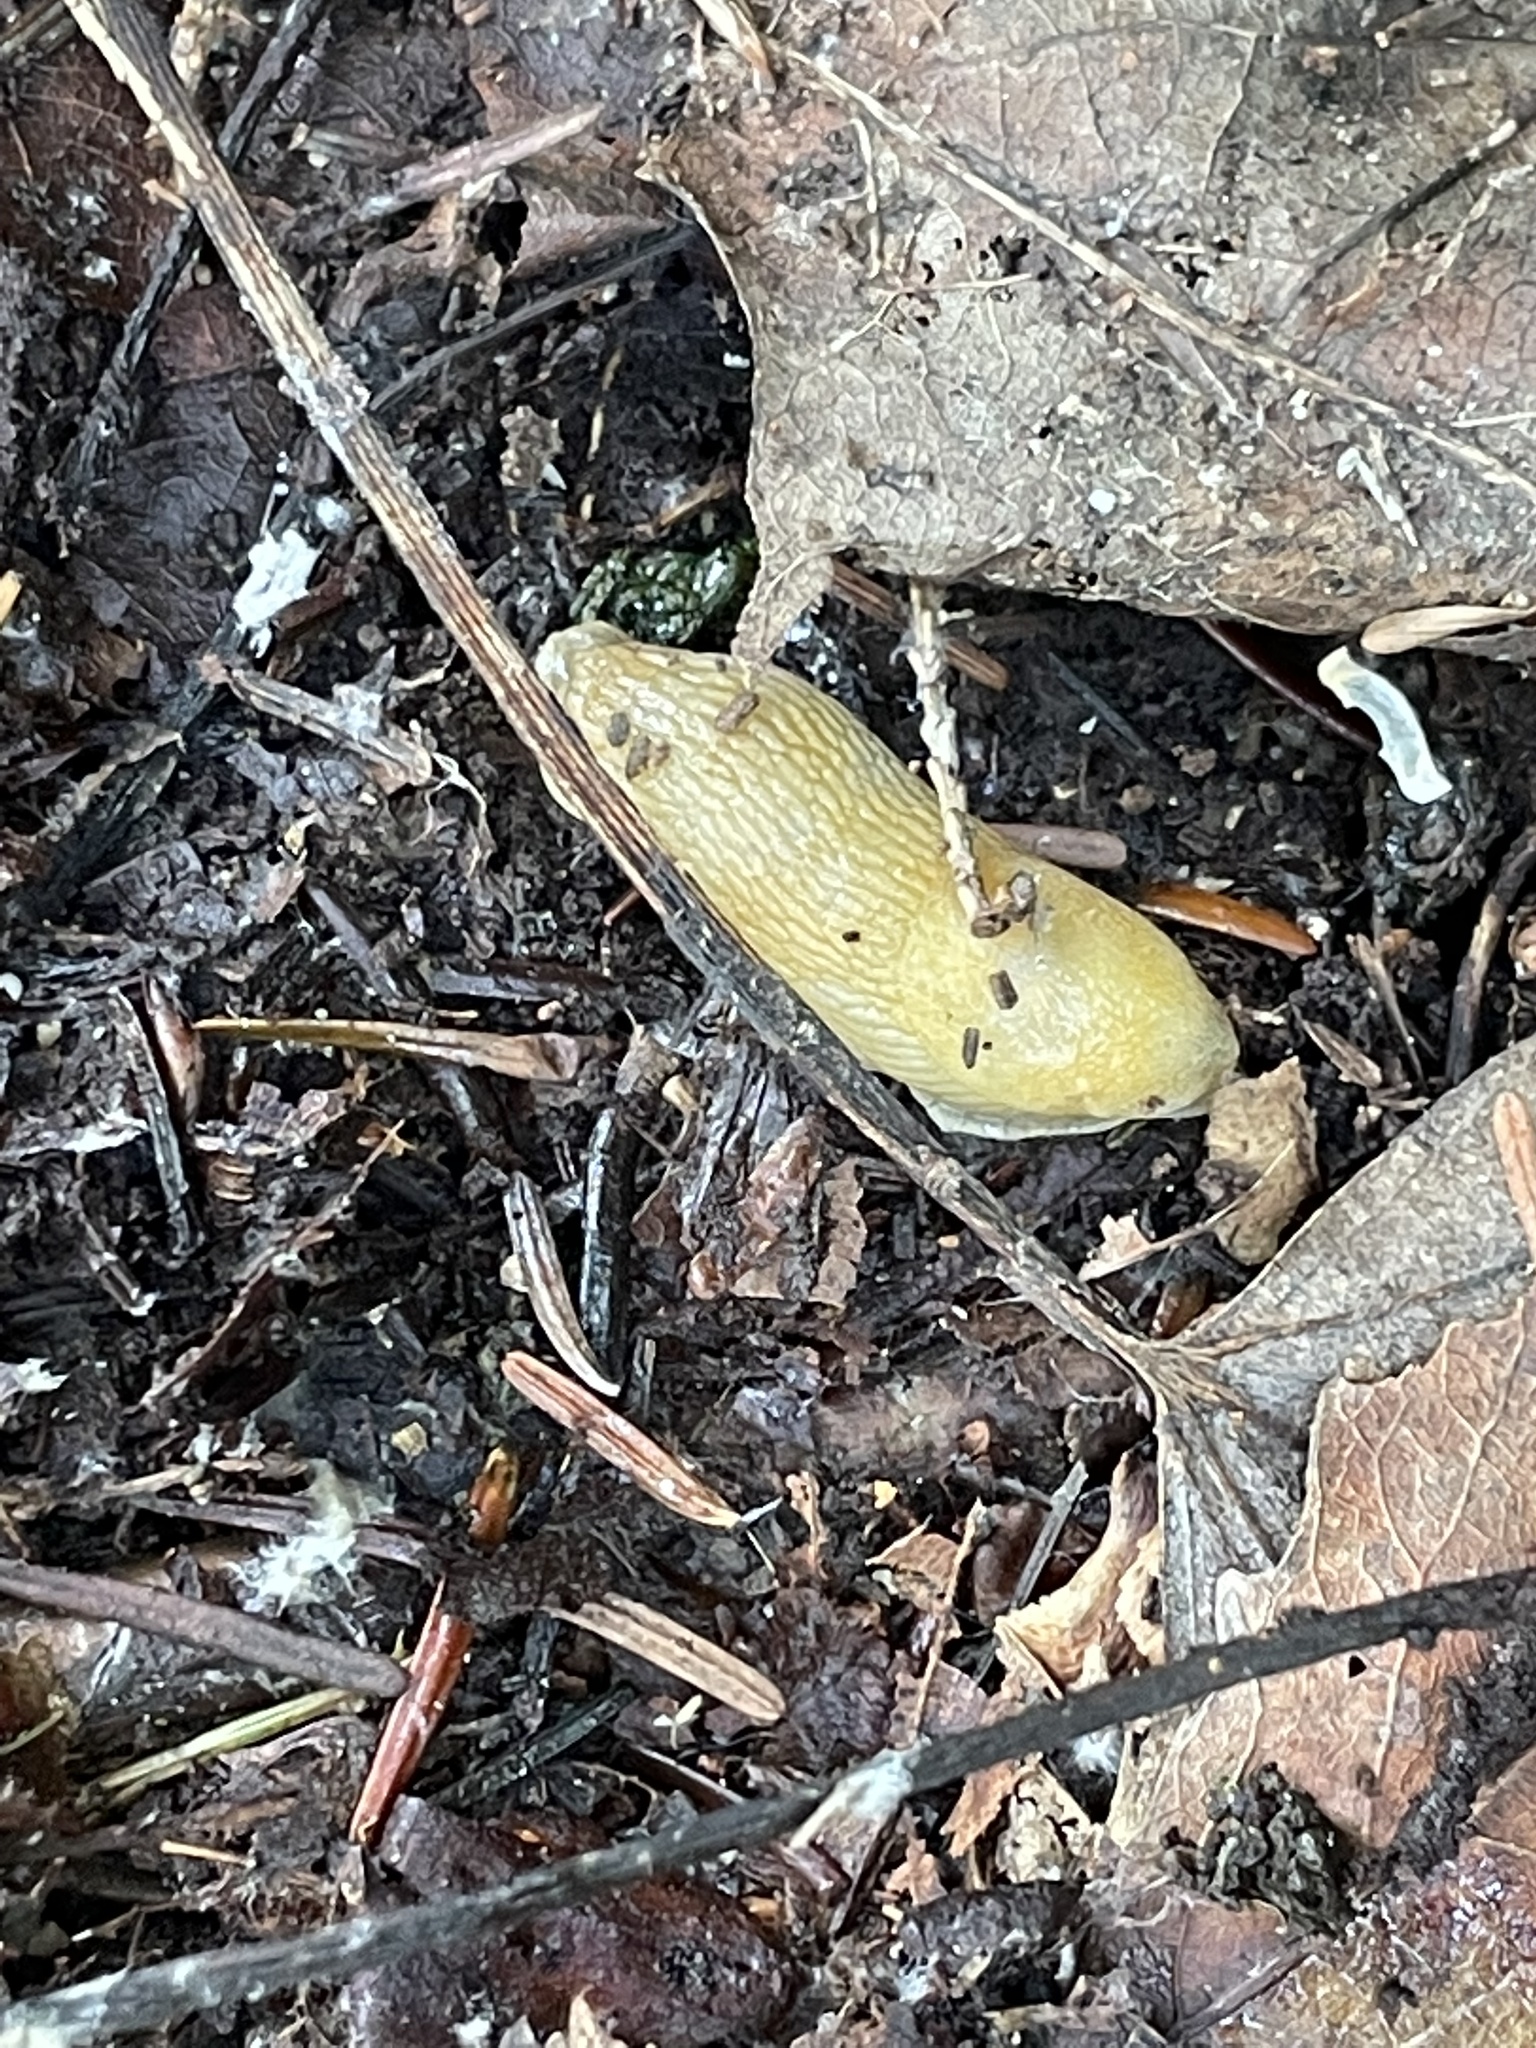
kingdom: Animalia
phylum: Mollusca
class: Gastropoda
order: Stylommatophora
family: Arionidae
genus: Arion
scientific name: Arion subfuscus
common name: Dusky arion
